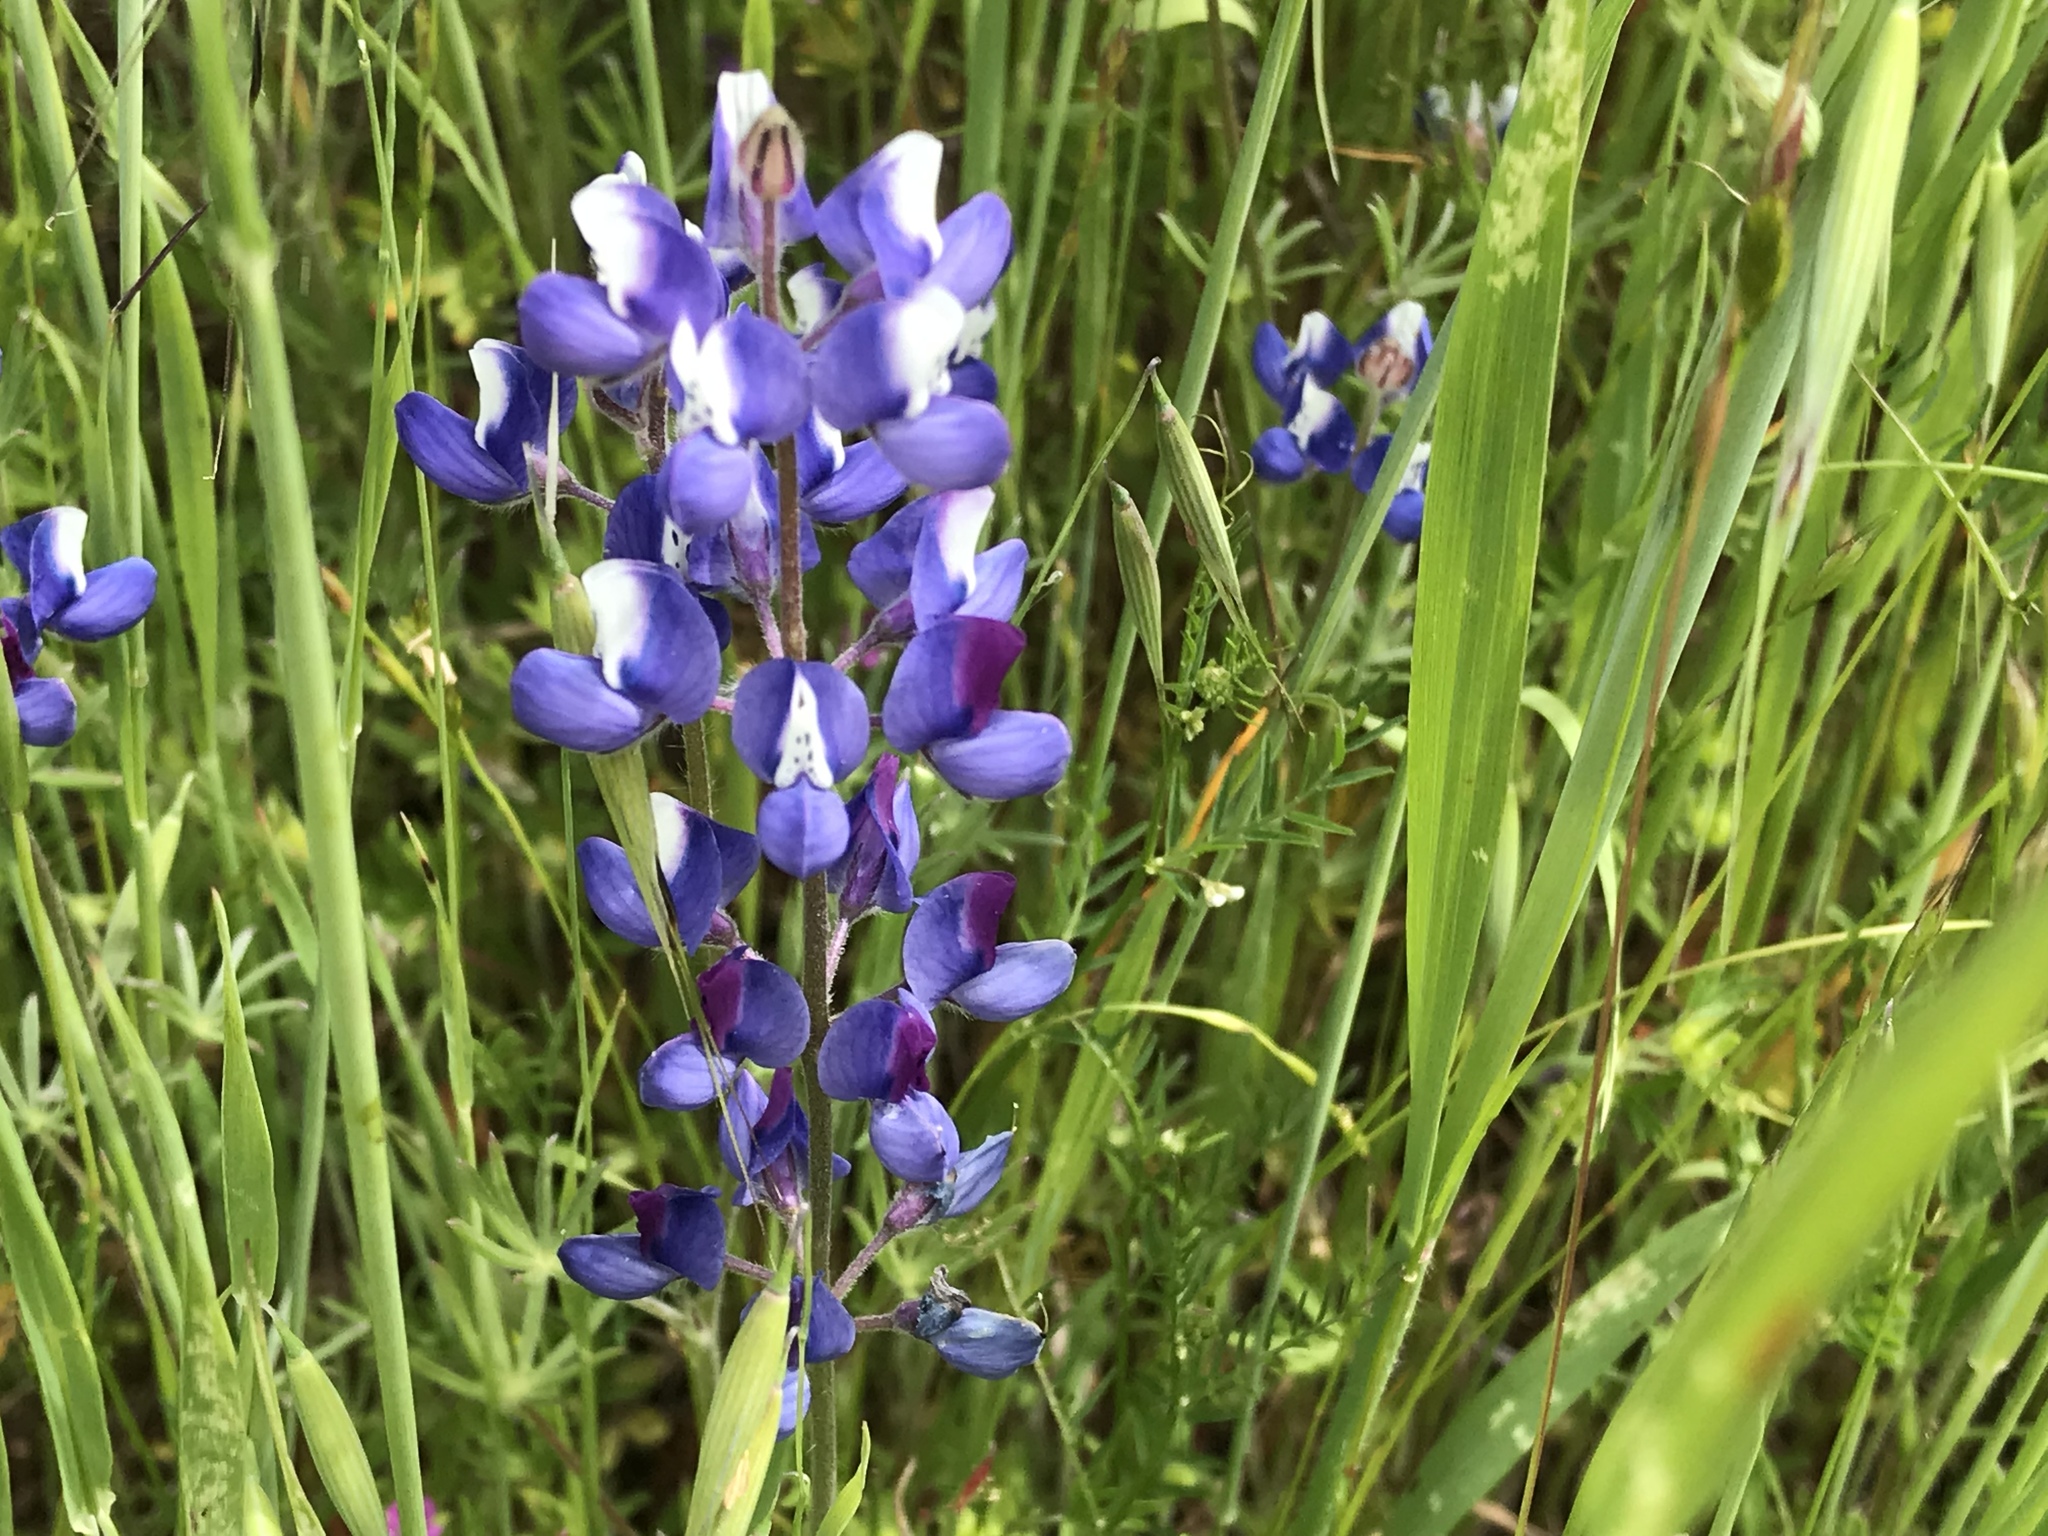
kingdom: Plantae
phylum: Tracheophyta
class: Magnoliopsida
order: Fabales
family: Fabaceae
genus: Lupinus
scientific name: Lupinus nanus
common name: Orean blue lupin
